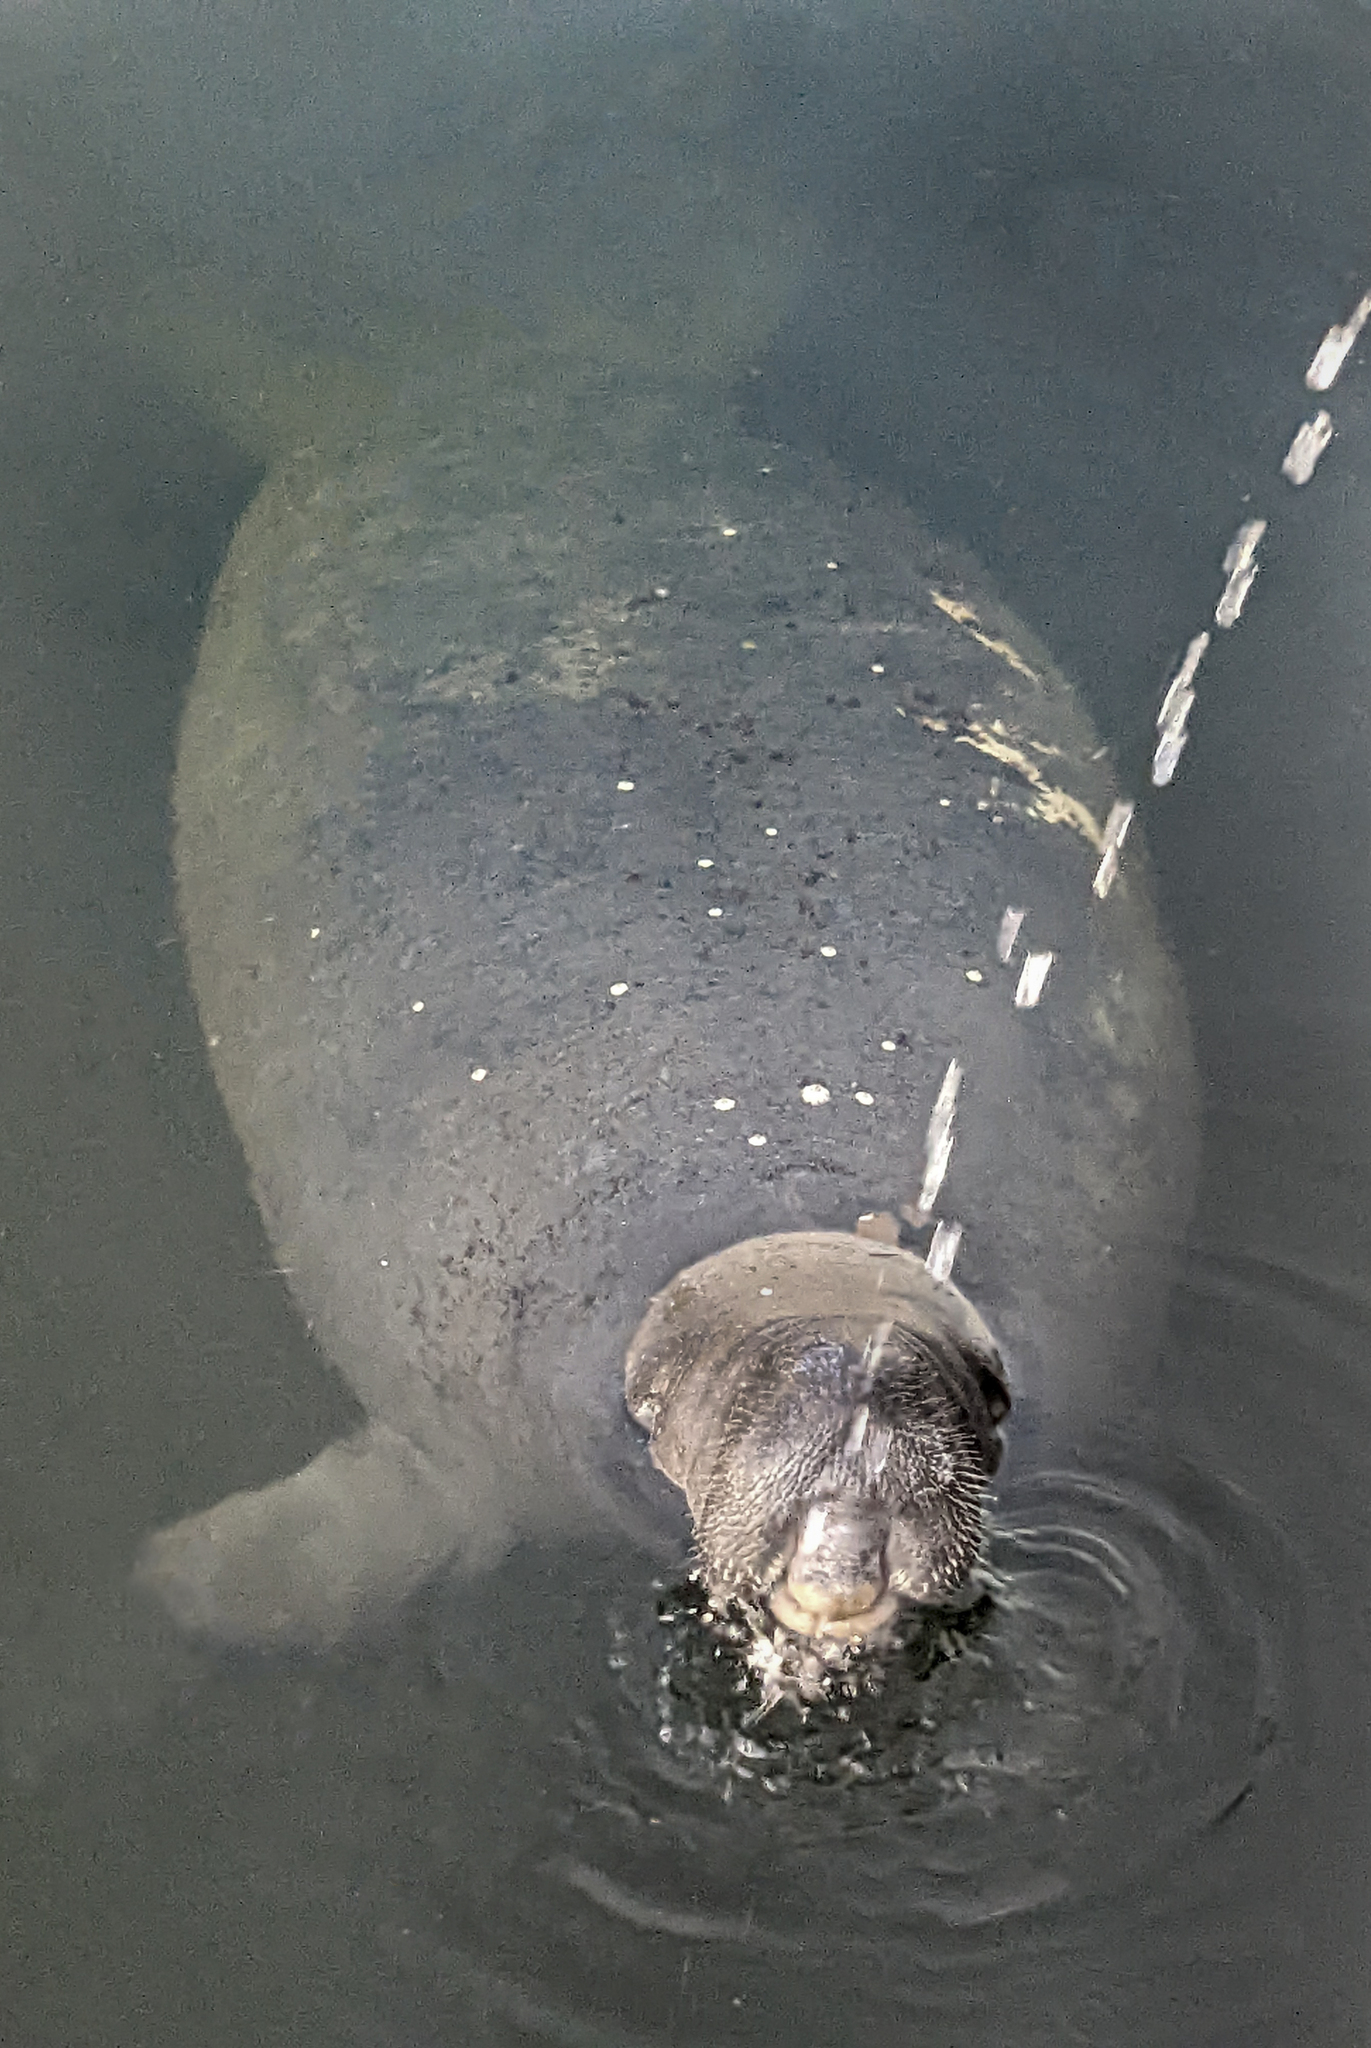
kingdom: Animalia
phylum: Chordata
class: Mammalia
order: Sirenia
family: Trichechidae
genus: Trichechus
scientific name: Trichechus manatus
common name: West indian manatee
